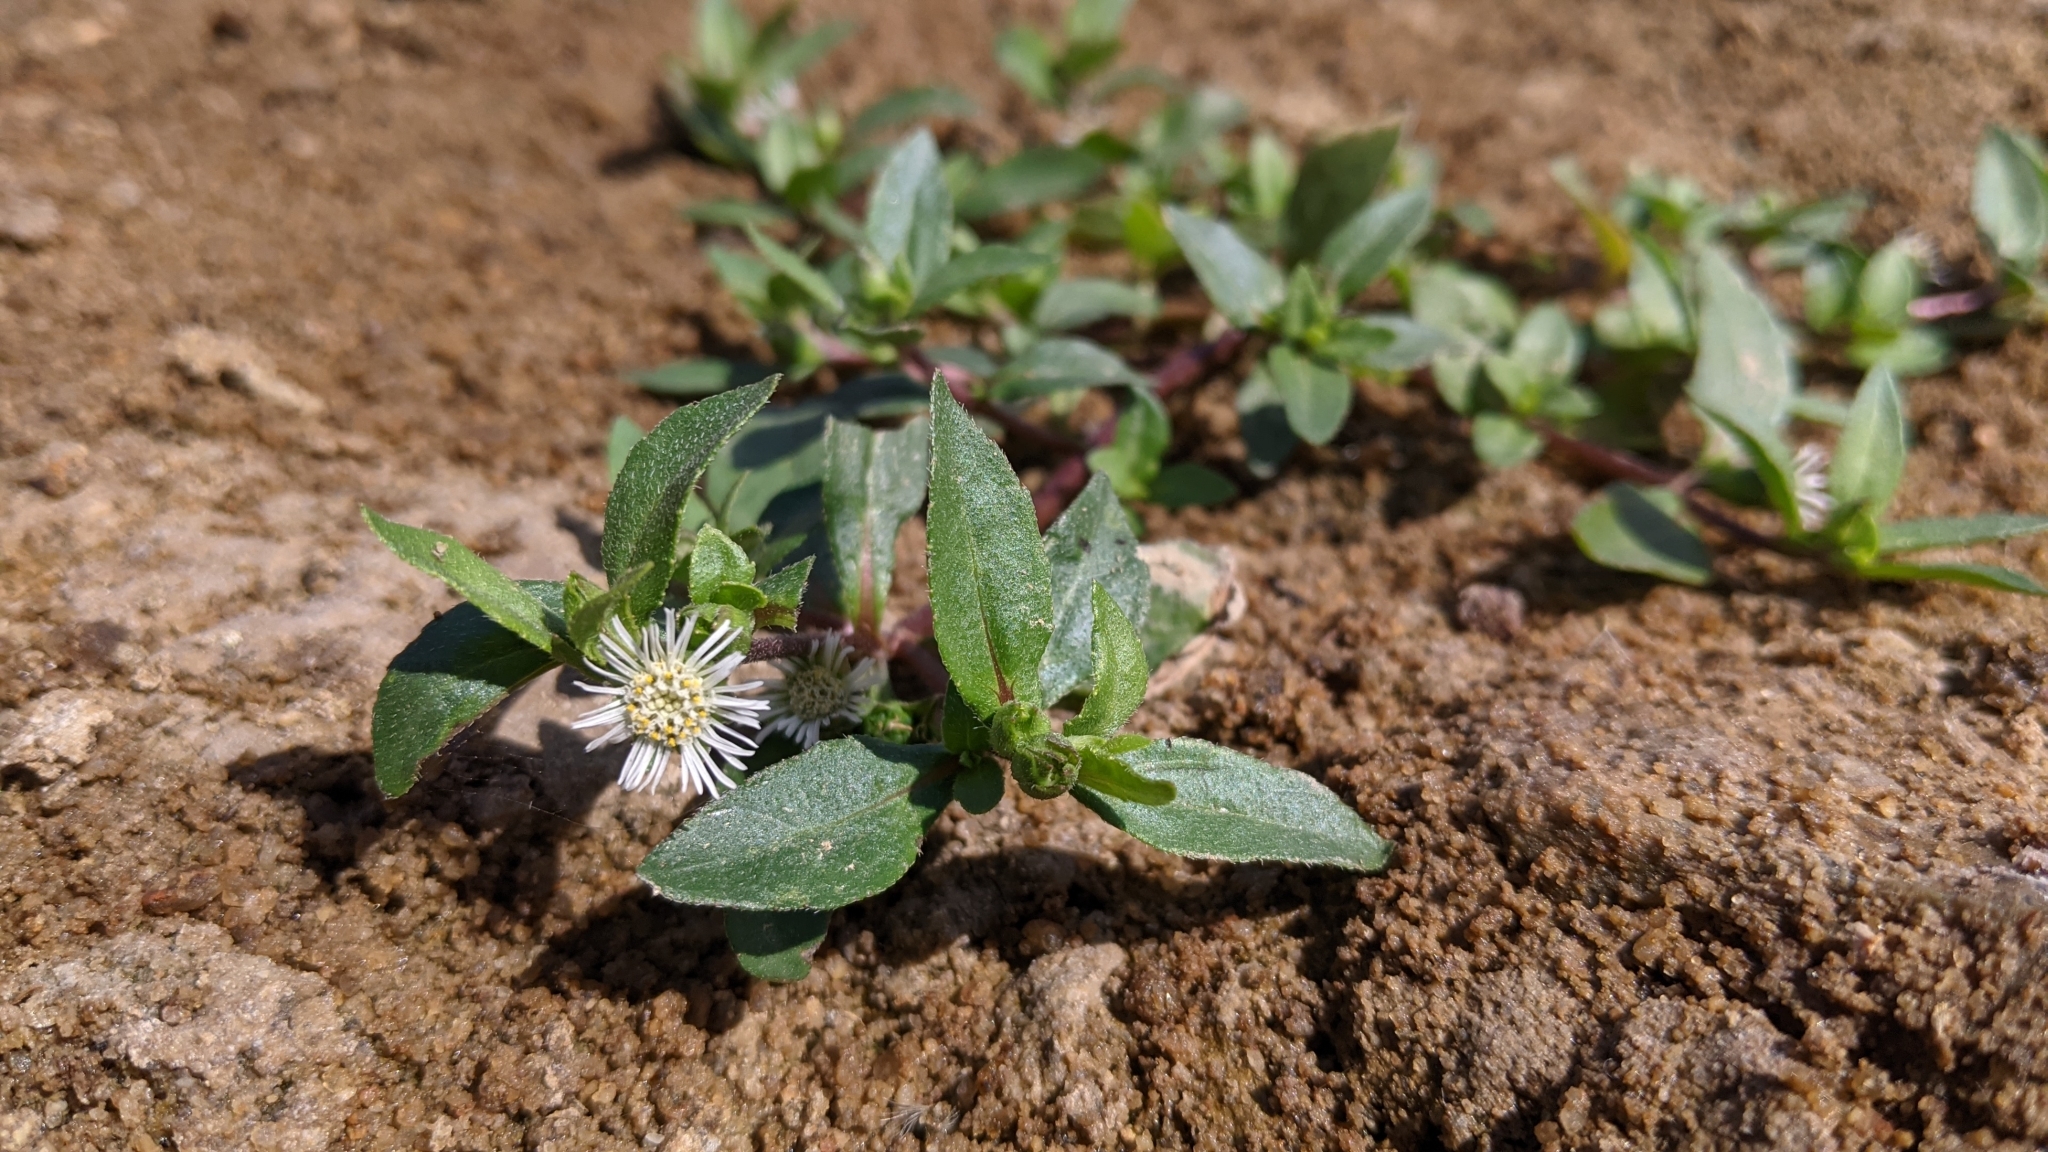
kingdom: Plantae
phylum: Tracheophyta
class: Magnoliopsida
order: Asterales
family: Asteraceae
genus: Eclipta
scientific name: Eclipta prostrata
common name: False daisy
